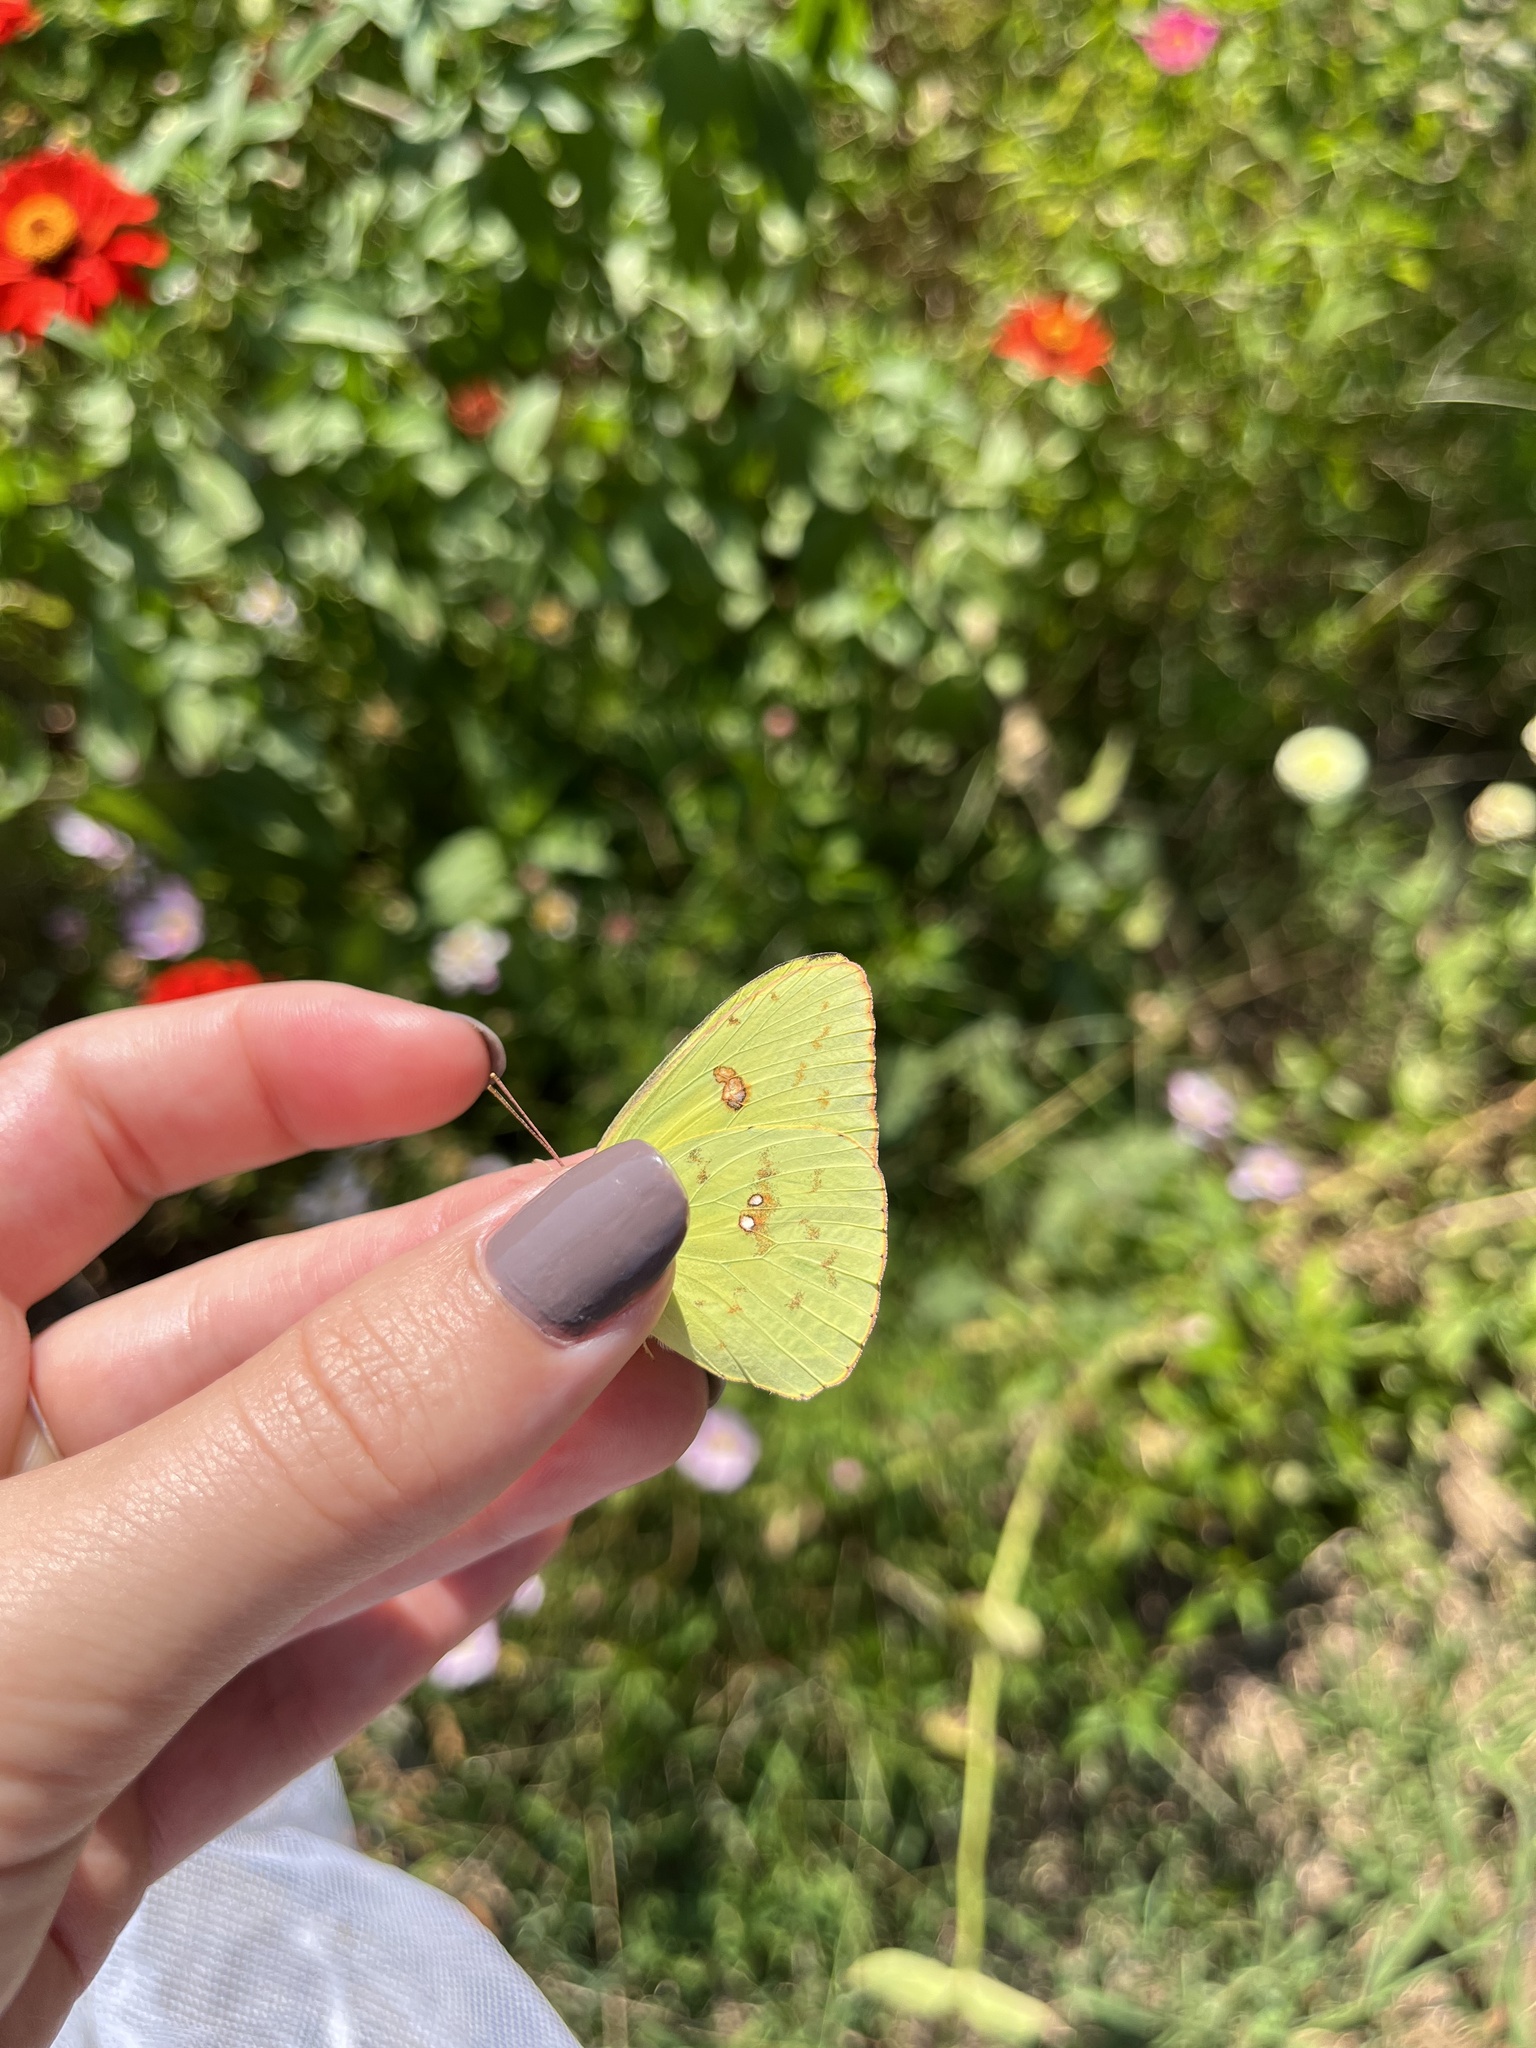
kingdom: Animalia
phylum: Arthropoda
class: Insecta
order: Lepidoptera
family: Pieridae
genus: Phoebis
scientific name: Phoebis sennae
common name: Cloudless sulphur
